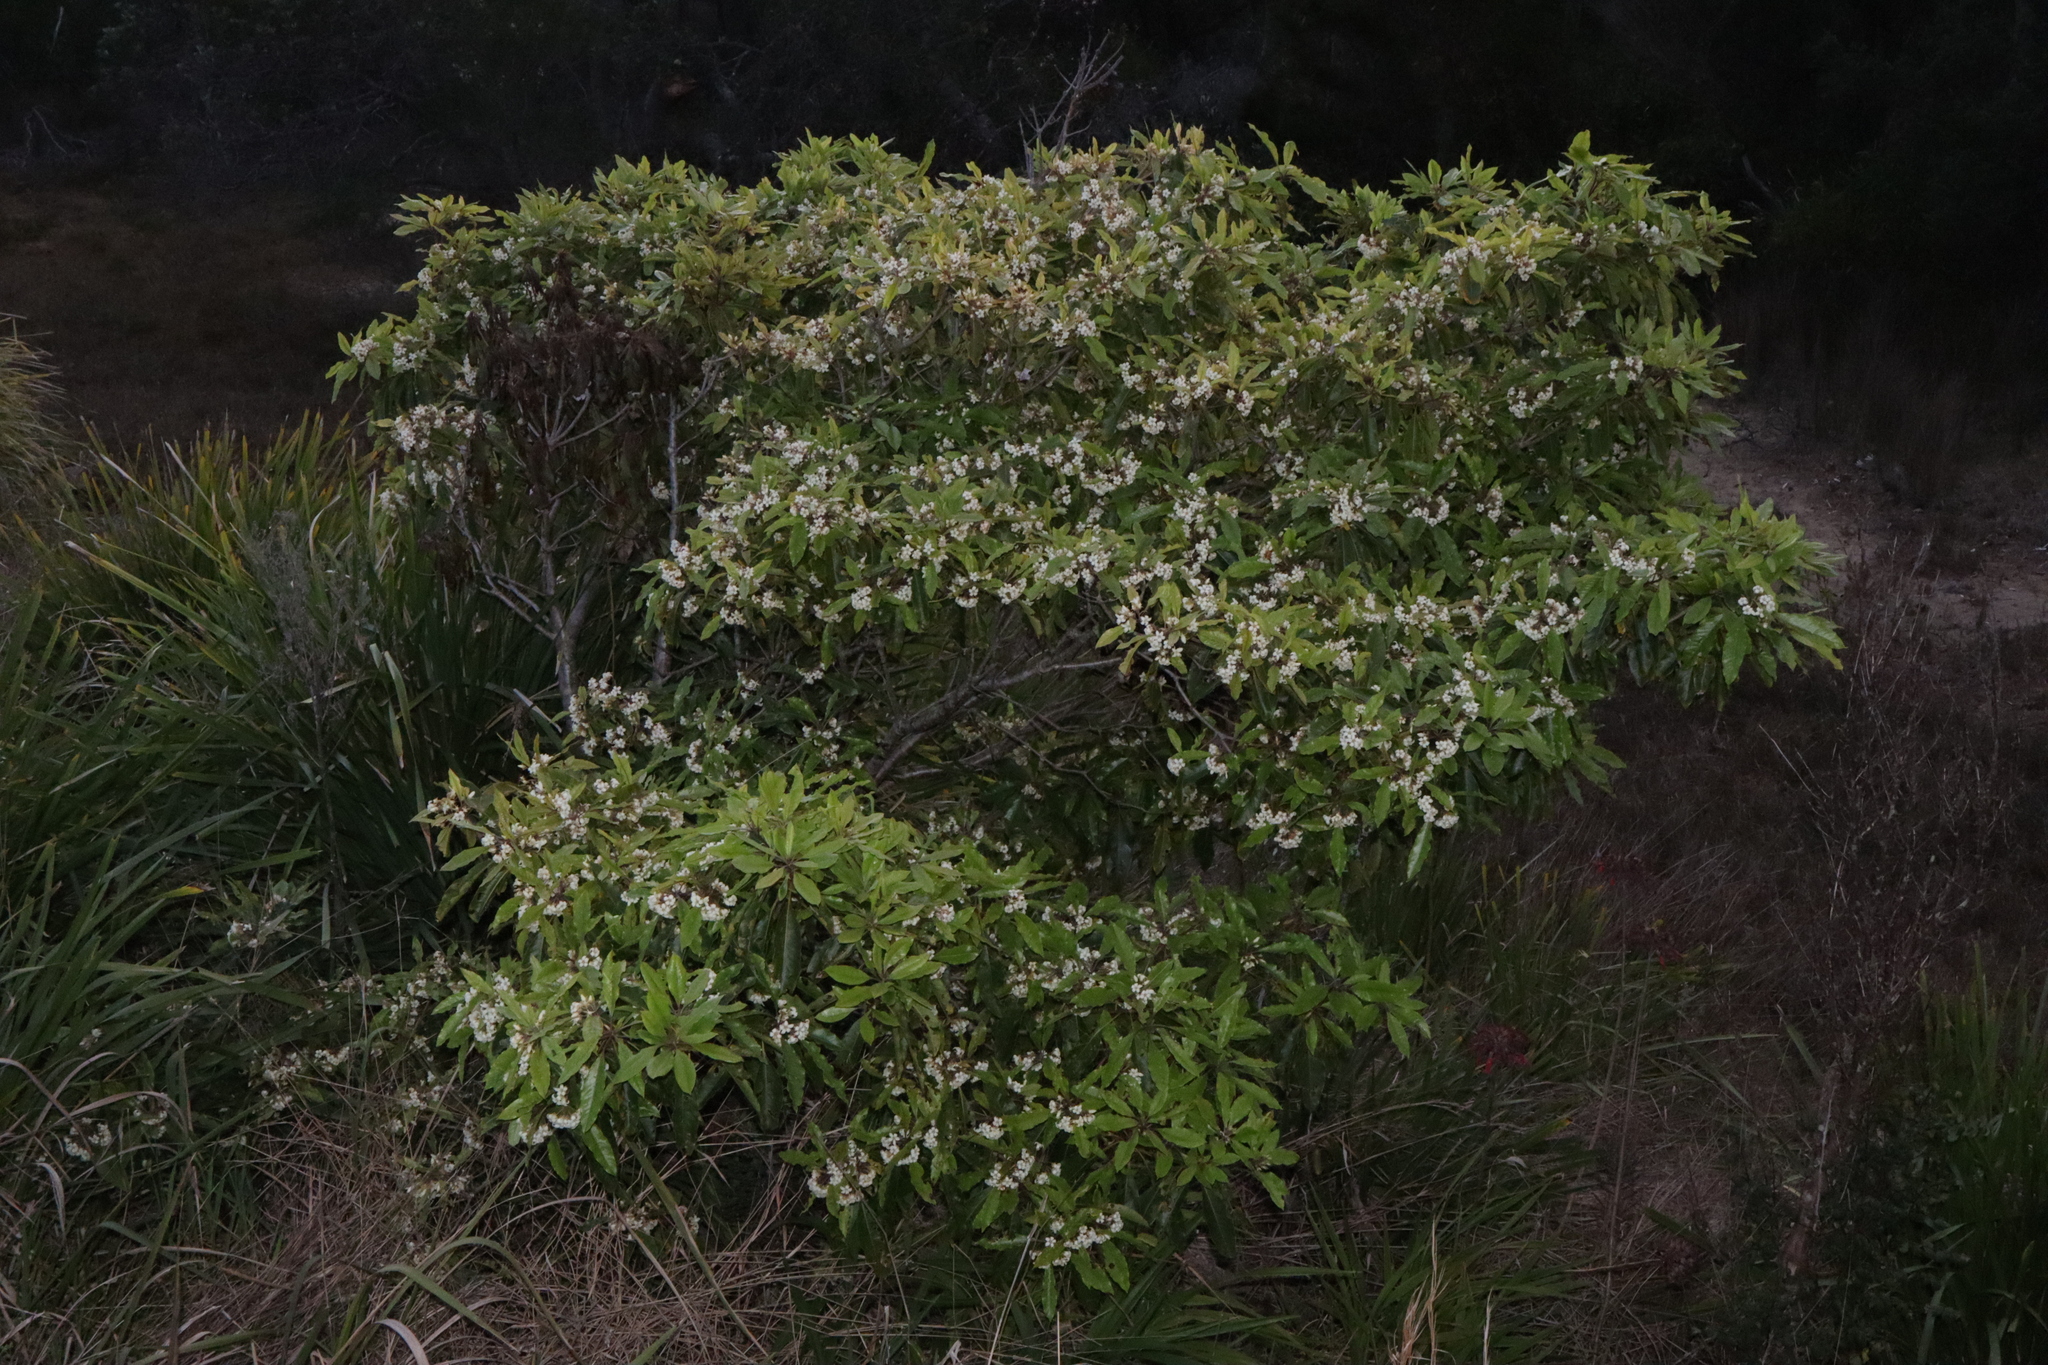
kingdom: Plantae
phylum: Tracheophyta
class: Magnoliopsida
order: Apiales
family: Pittosporaceae
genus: Pittosporum
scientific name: Pittosporum undulatum
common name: Australian cheesewood
